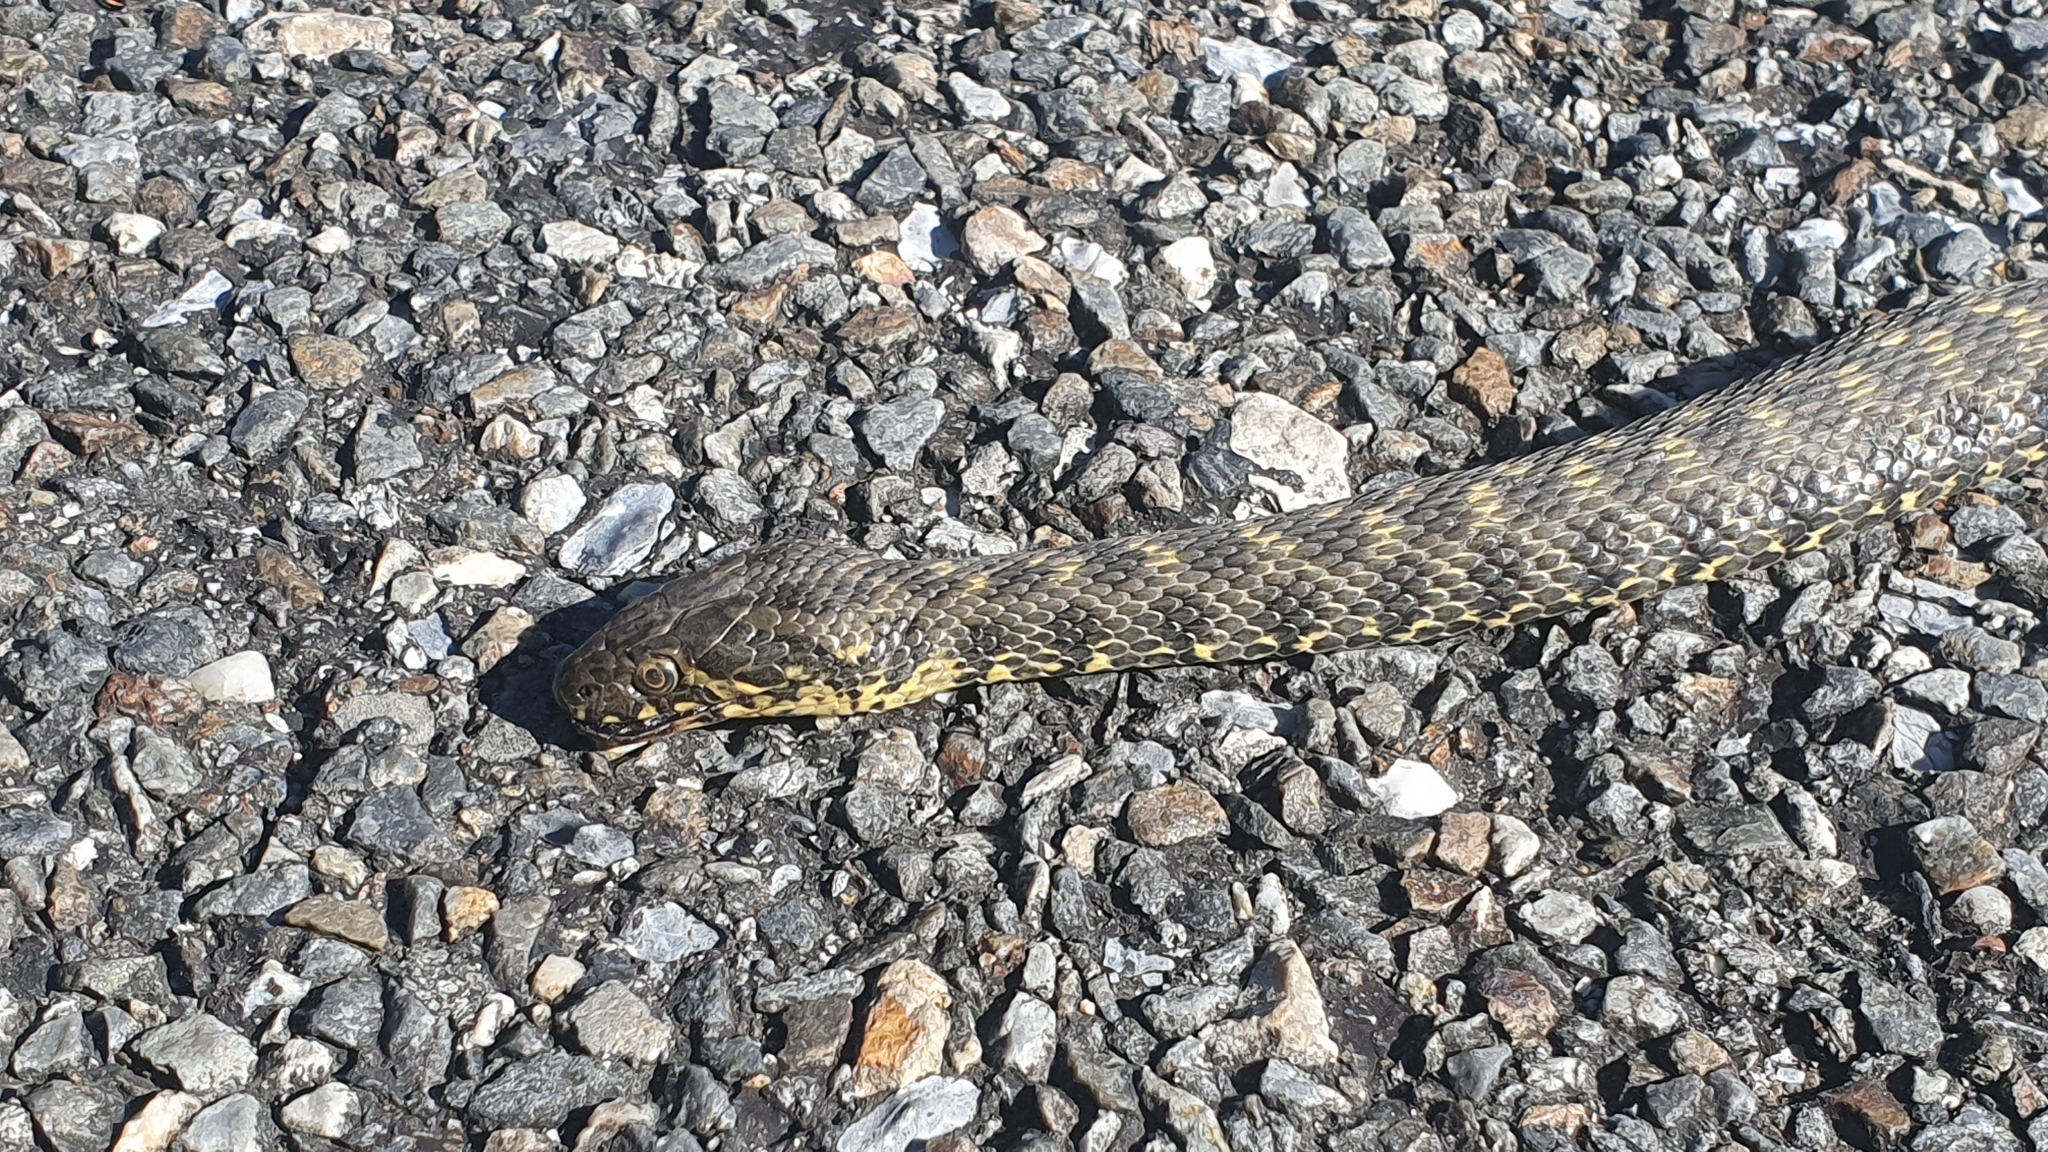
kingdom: Animalia
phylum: Chordata
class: Squamata
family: Colubridae
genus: Natrix
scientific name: Natrix maura
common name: Viperine water snake
